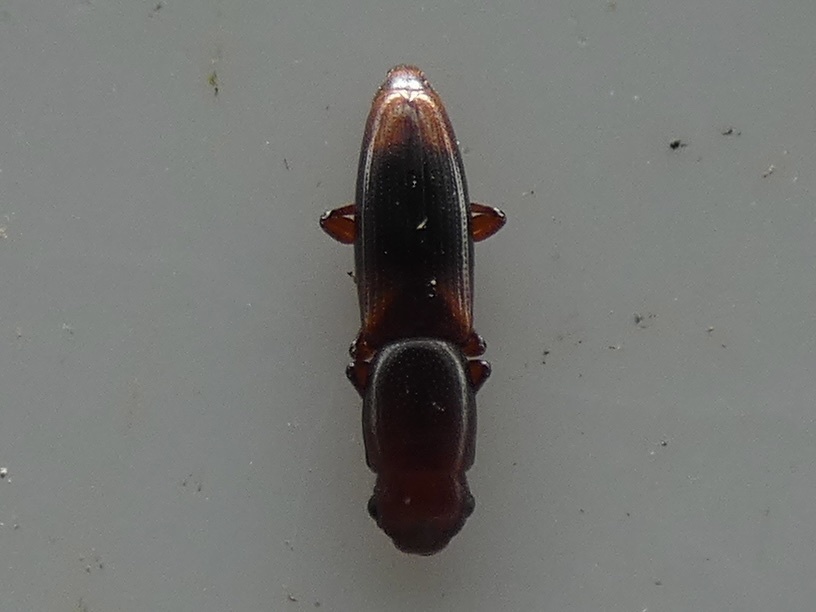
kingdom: Animalia
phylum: Arthropoda
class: Insecta
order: Coleoptera
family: Monotomidae
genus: Rhizophagus
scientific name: Rhizophagus dispar
